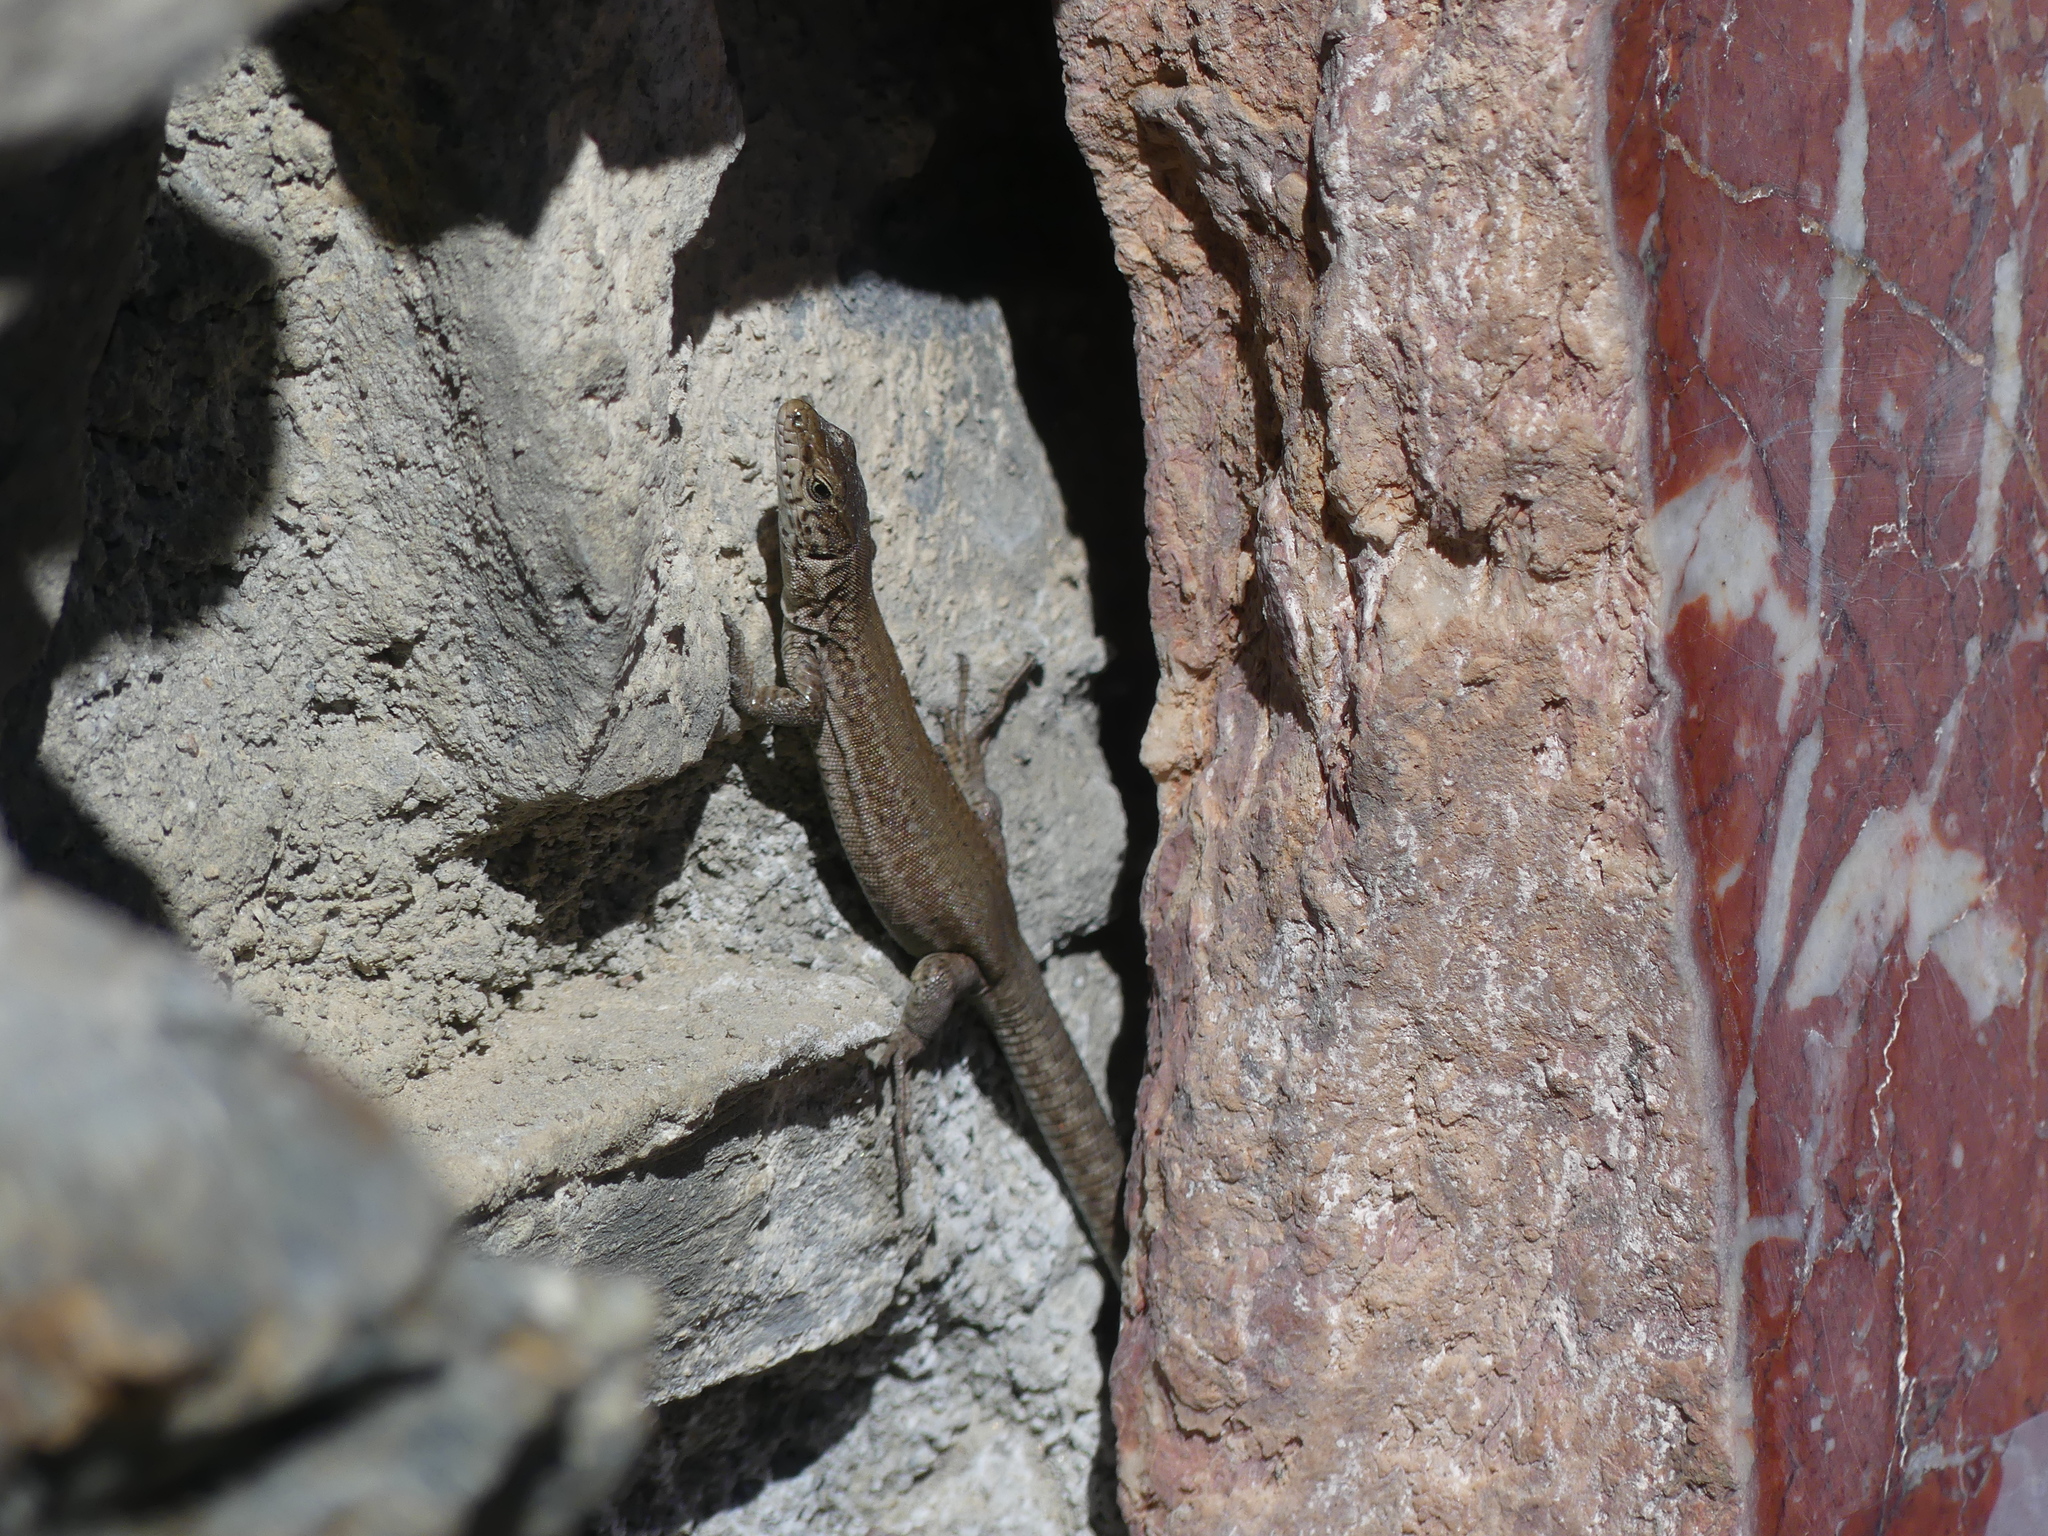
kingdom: Animalia
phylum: Chordata
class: Squamata
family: Lacertidae
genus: Podarcis
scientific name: Podarcis liolepis
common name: Catalonian wall lizard
